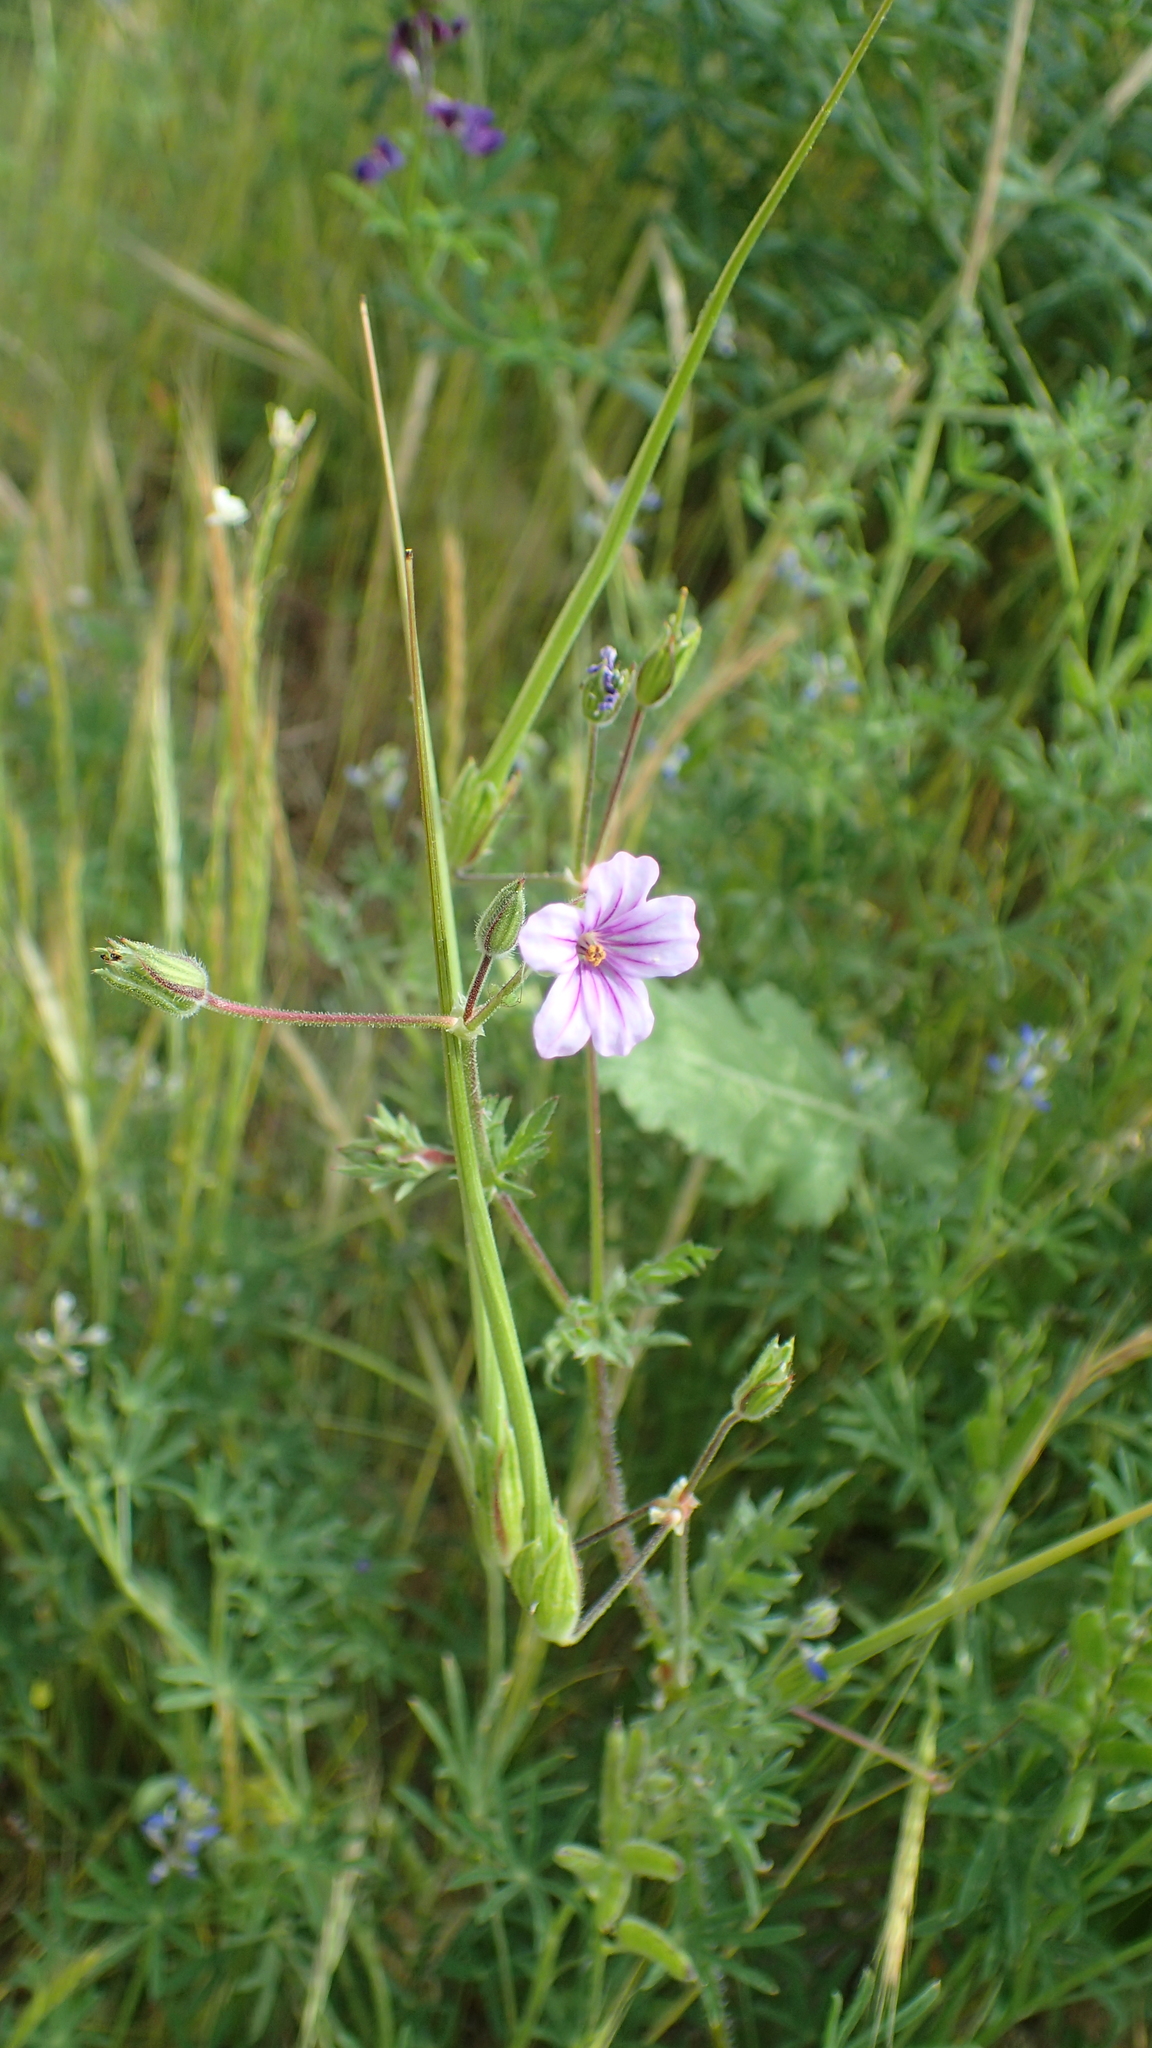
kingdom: Plantae
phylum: Tracheophyta
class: Magnoliopsida
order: Geraniales
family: Geraniaceae
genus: Erodium
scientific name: Erodium botrys
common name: Mediterranean stork's-bill
